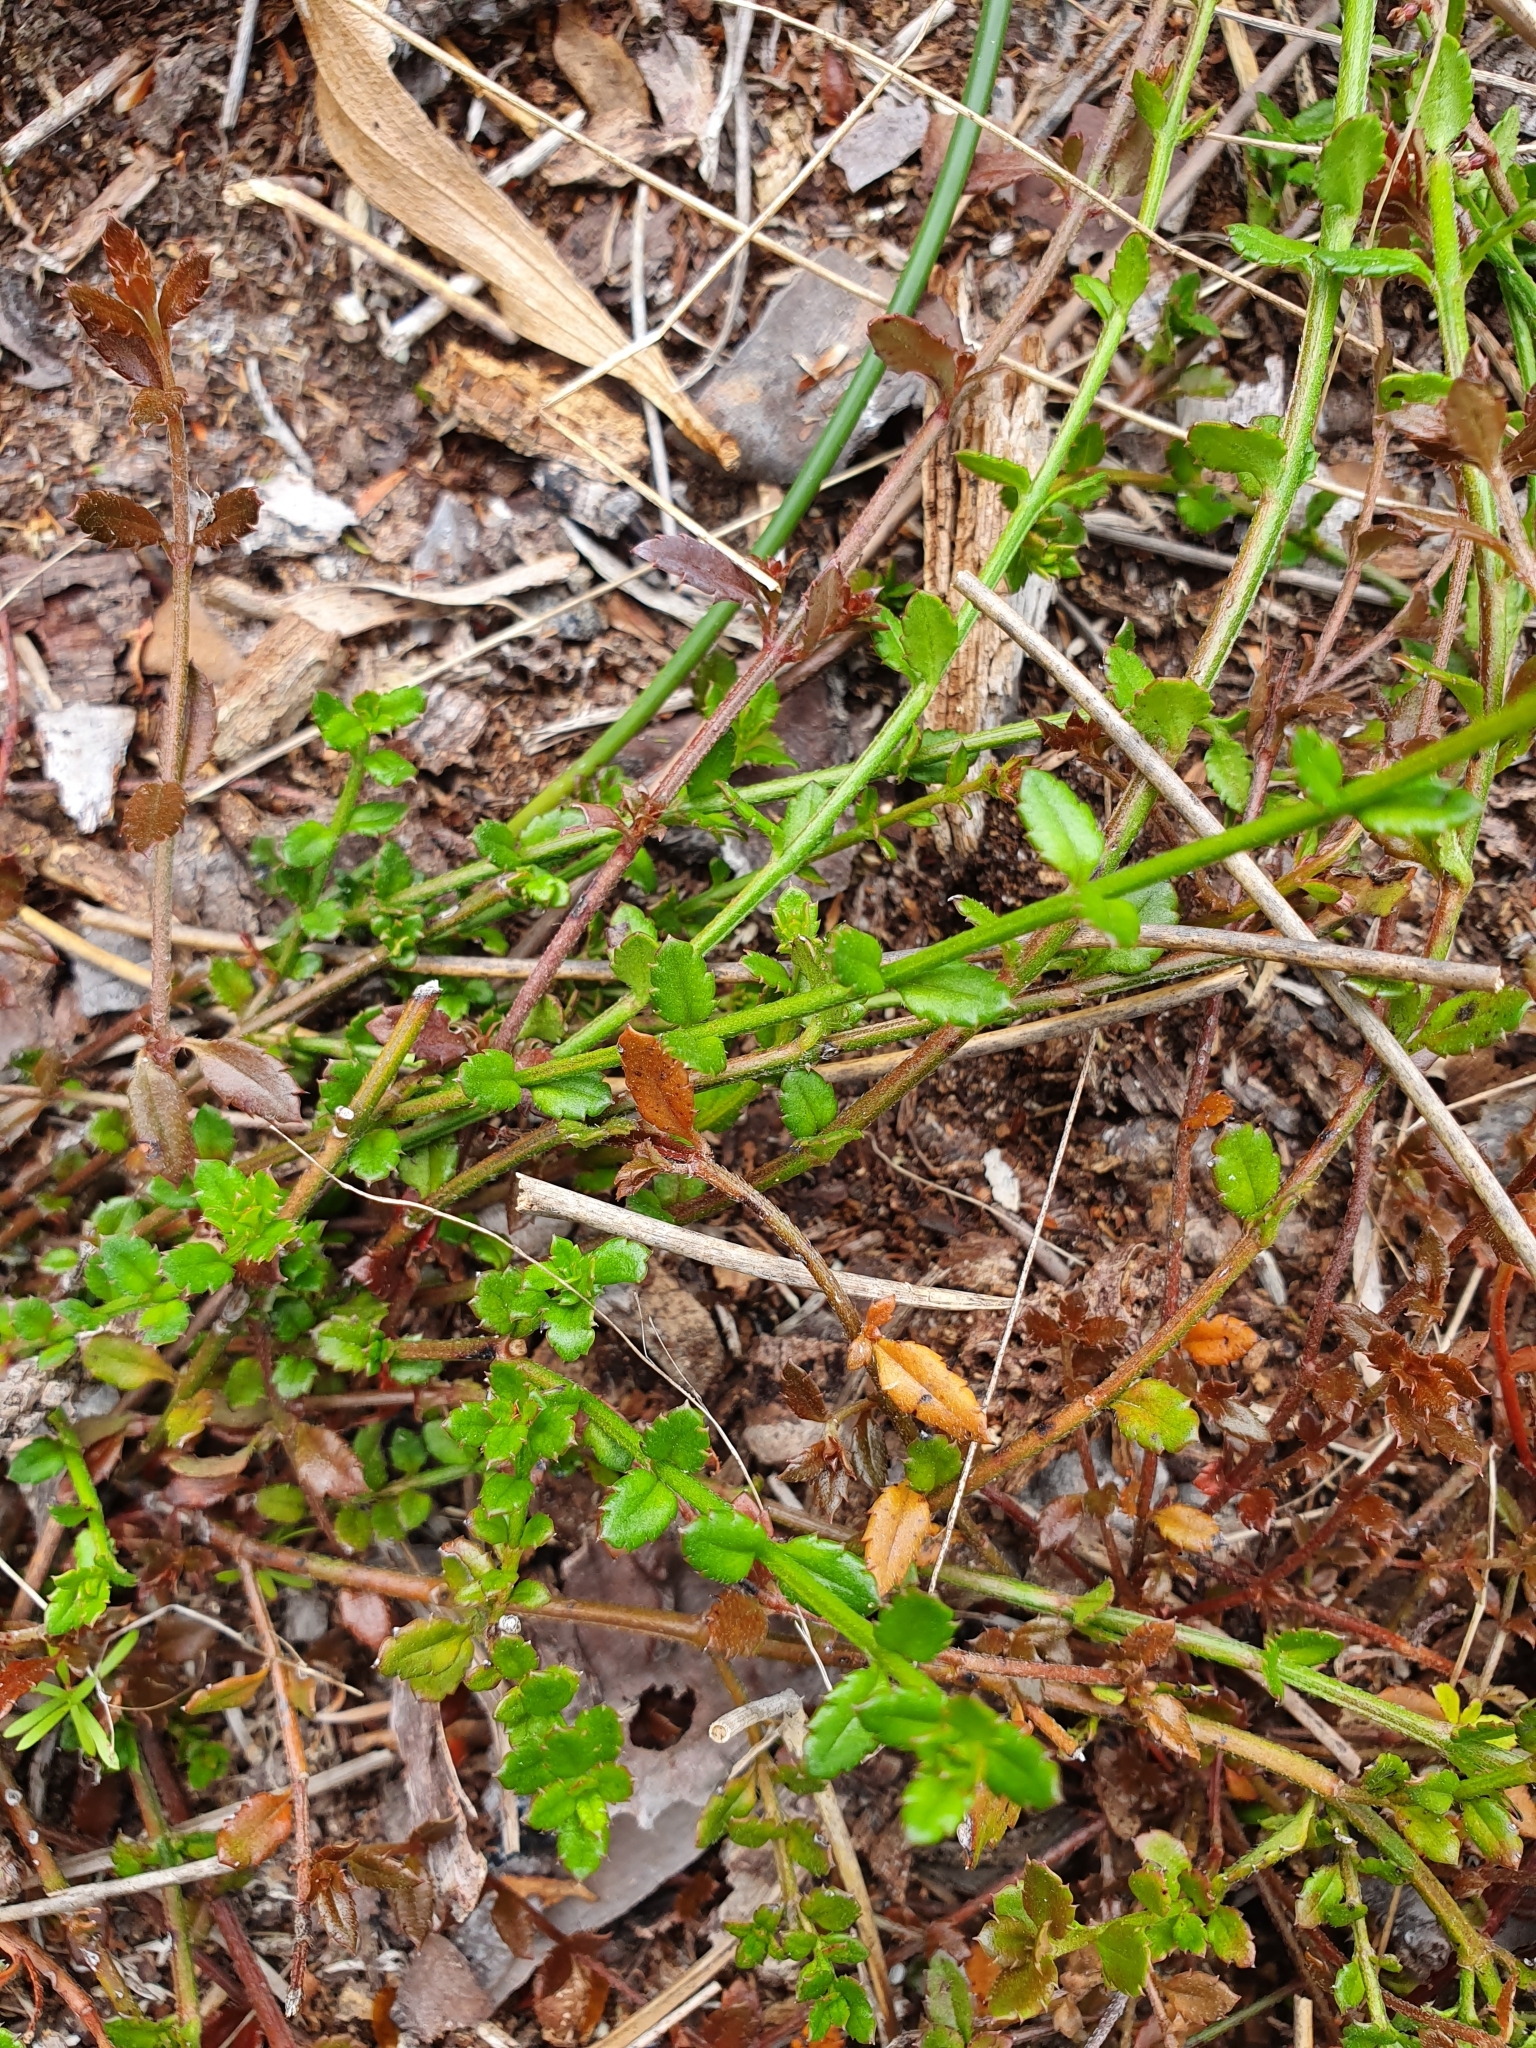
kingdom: Plantae
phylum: Tracheophyta
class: Magnoliopsida
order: Saxifragales
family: Haloragaceae
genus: Gonocarpus
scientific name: Gonocarpus incanus
